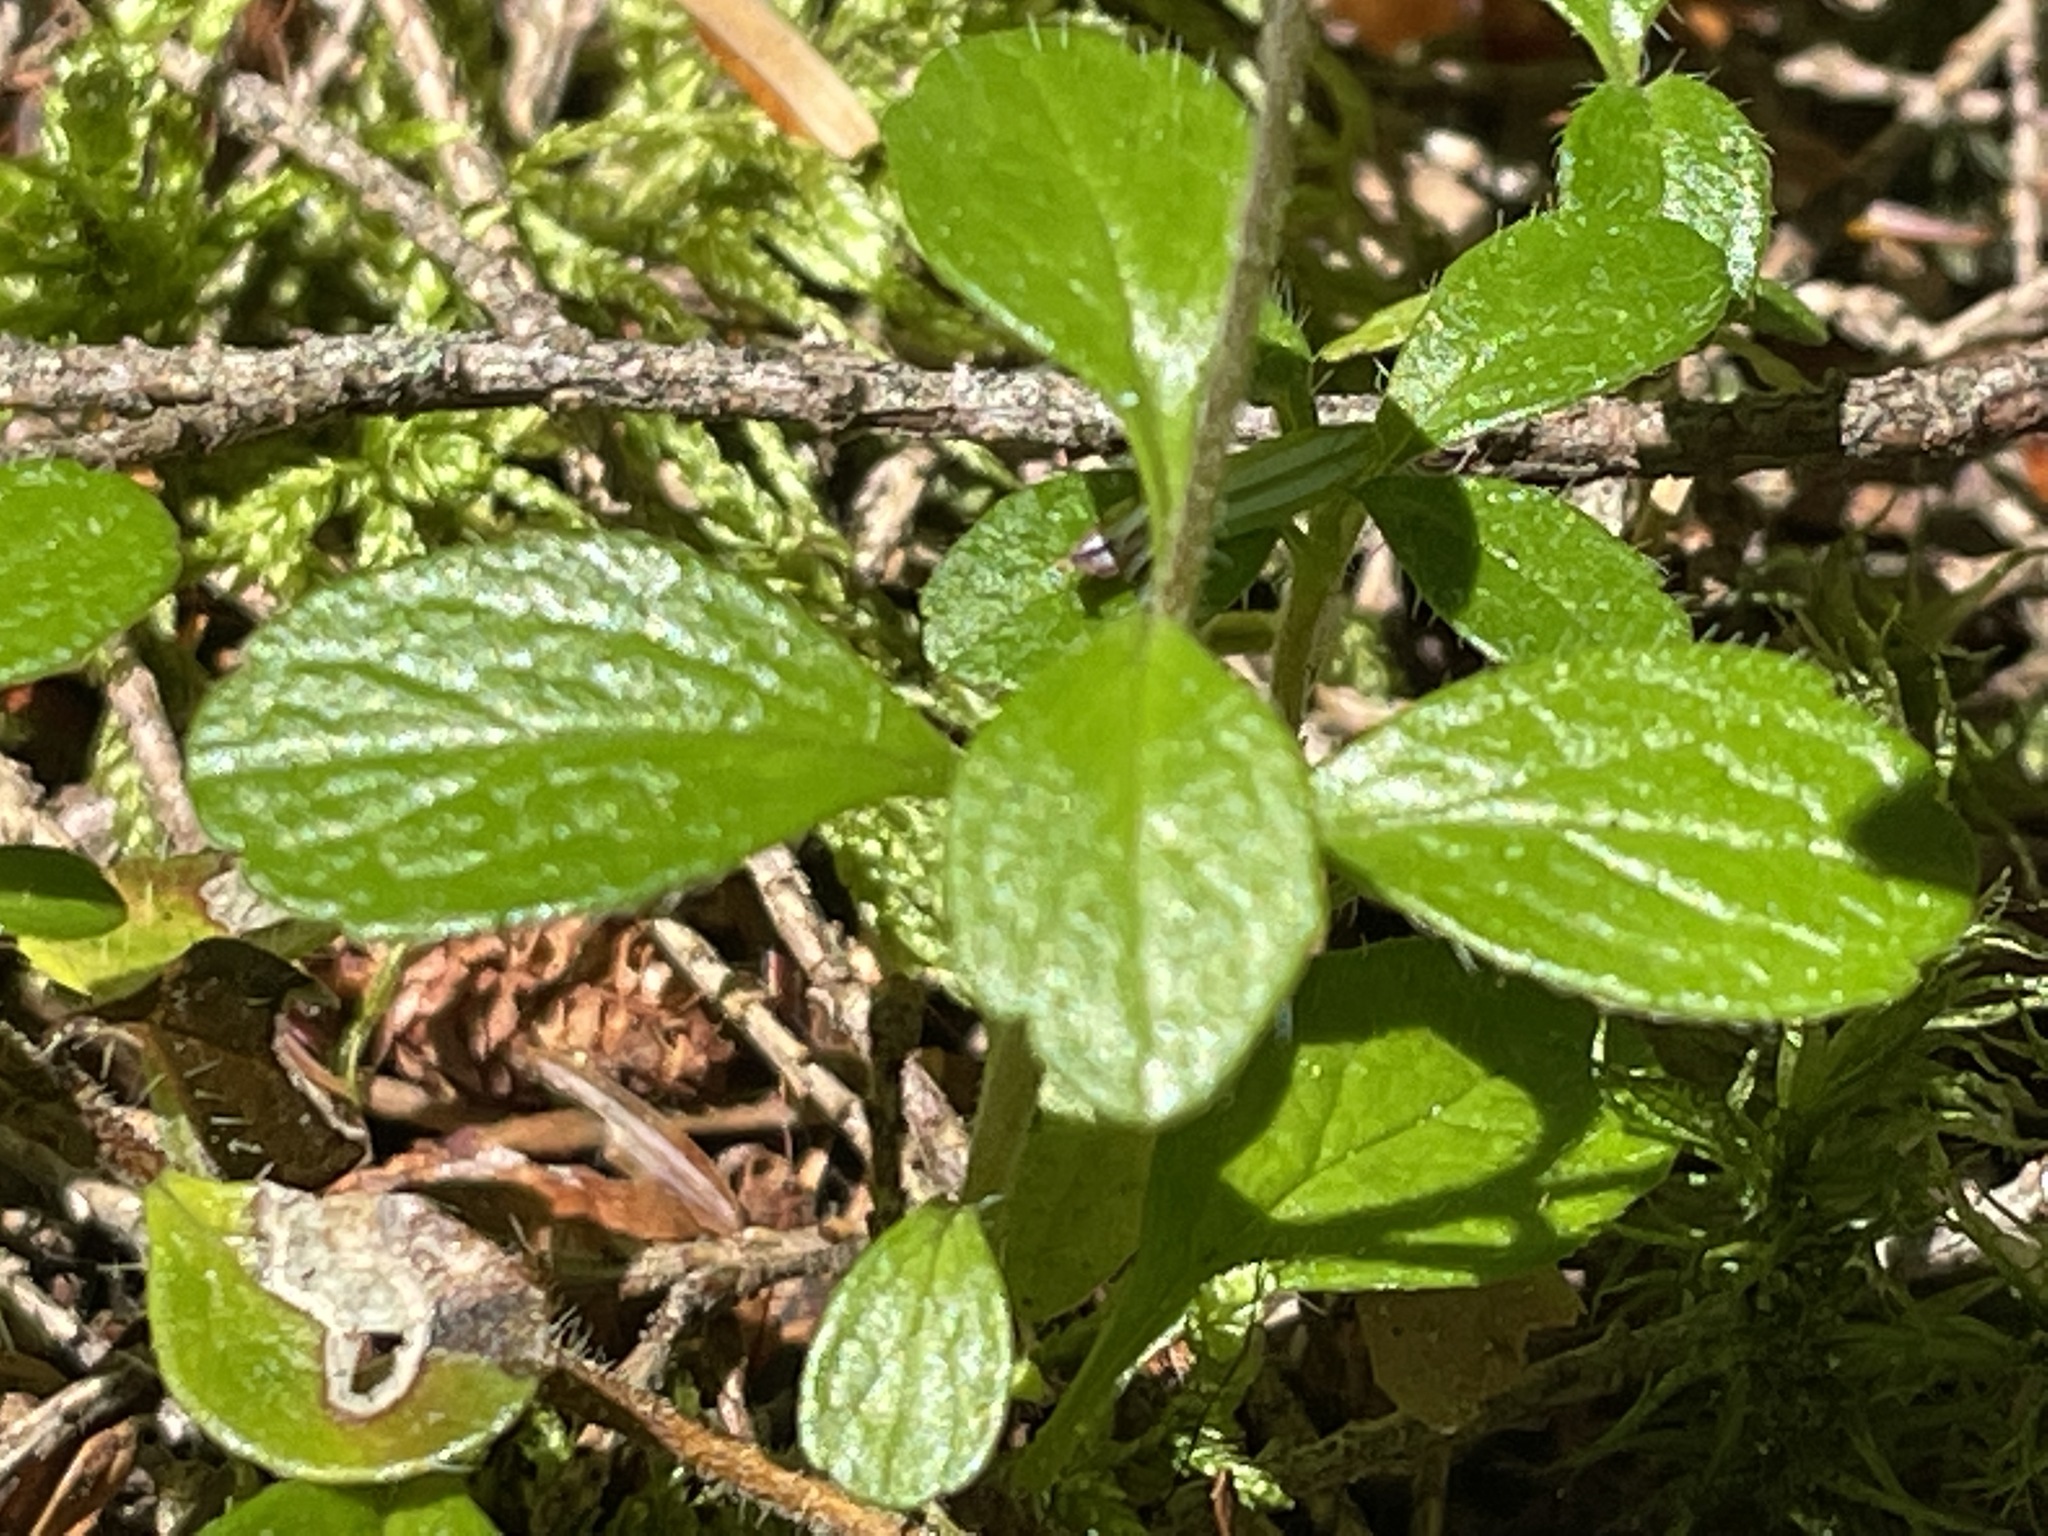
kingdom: Plantae
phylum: Tracheophyta
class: Magnoliopsida
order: Dipsacales
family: Caprifoliaceae
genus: Linnaea
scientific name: Linnaea borealis
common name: Twinflower
